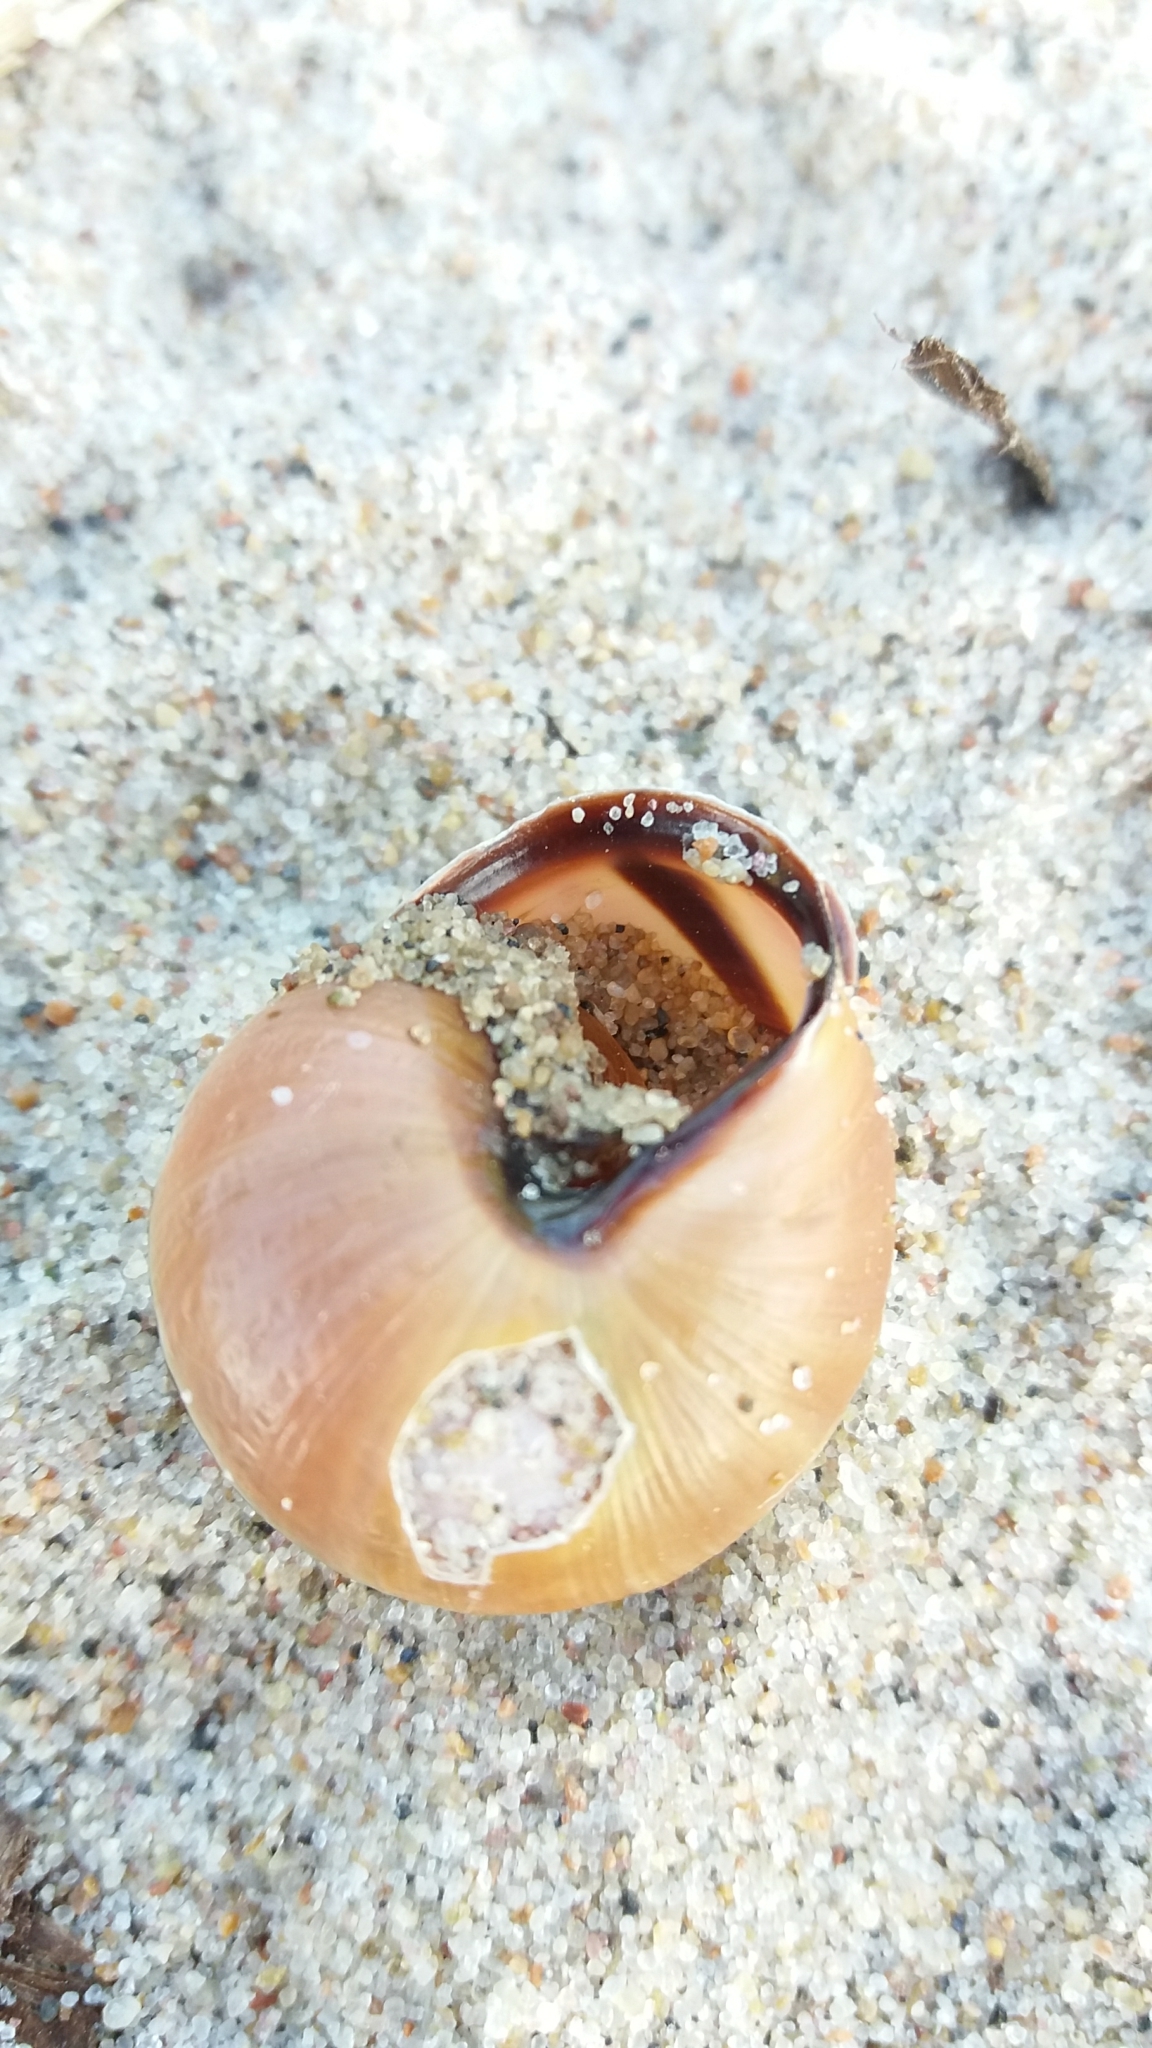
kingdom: Animalia
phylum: Mollusca
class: Gastropoda
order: Stylommatophora
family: Helicidae
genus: Cepaea
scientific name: Cepaea nemoralis
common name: Grovesnail
